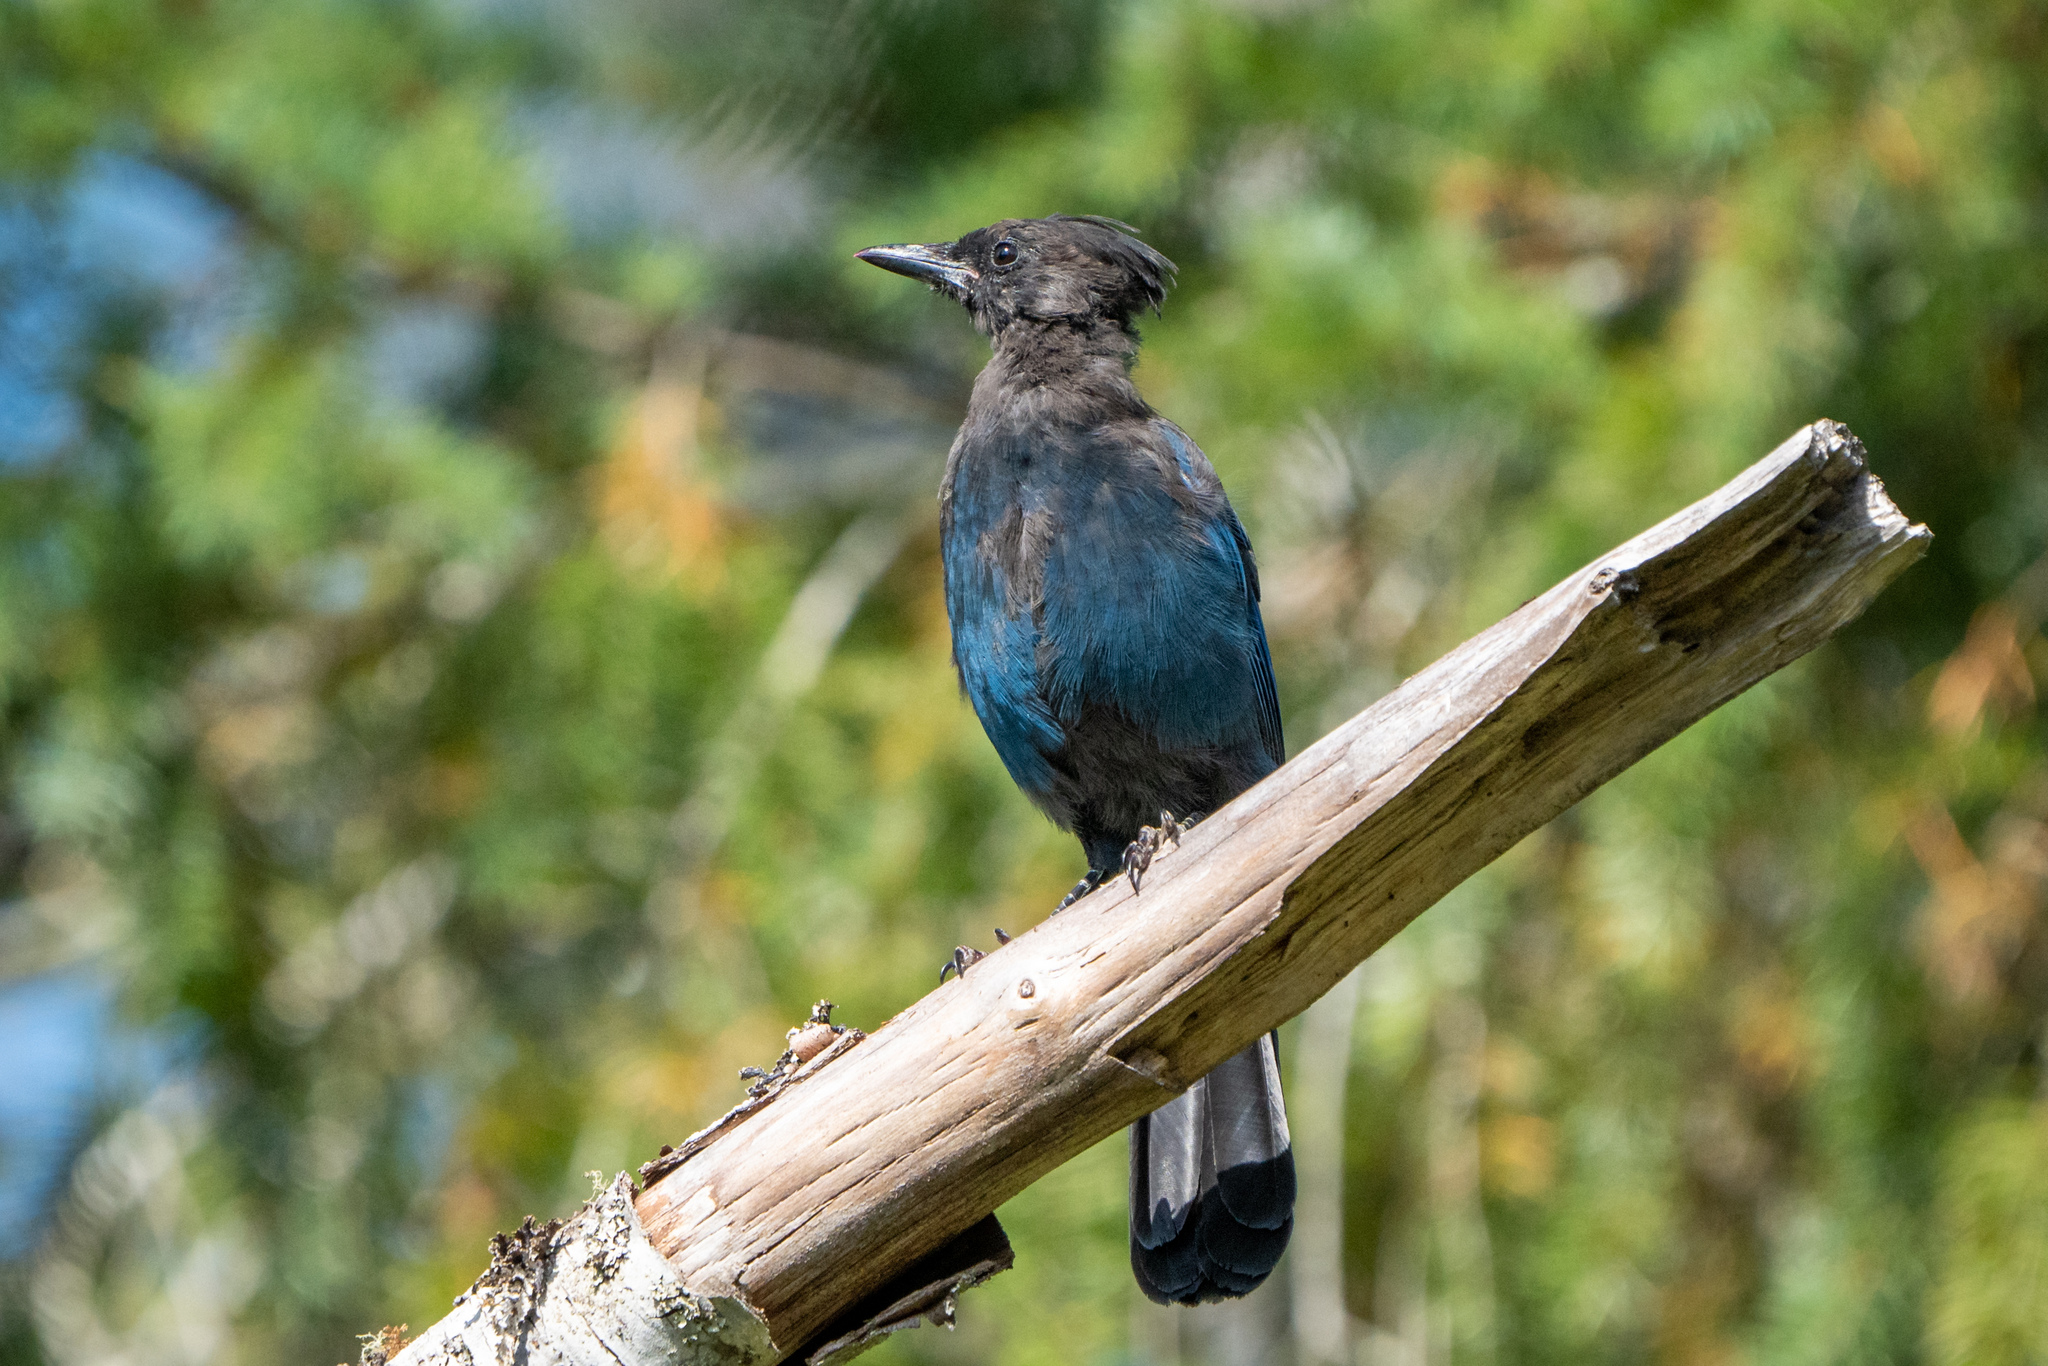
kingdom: Animalia
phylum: Chordata
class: Aves
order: Passeriformes
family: Corvidae
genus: Cyanocitta
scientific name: Cyanocitta stelleri
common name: Steller's jay
